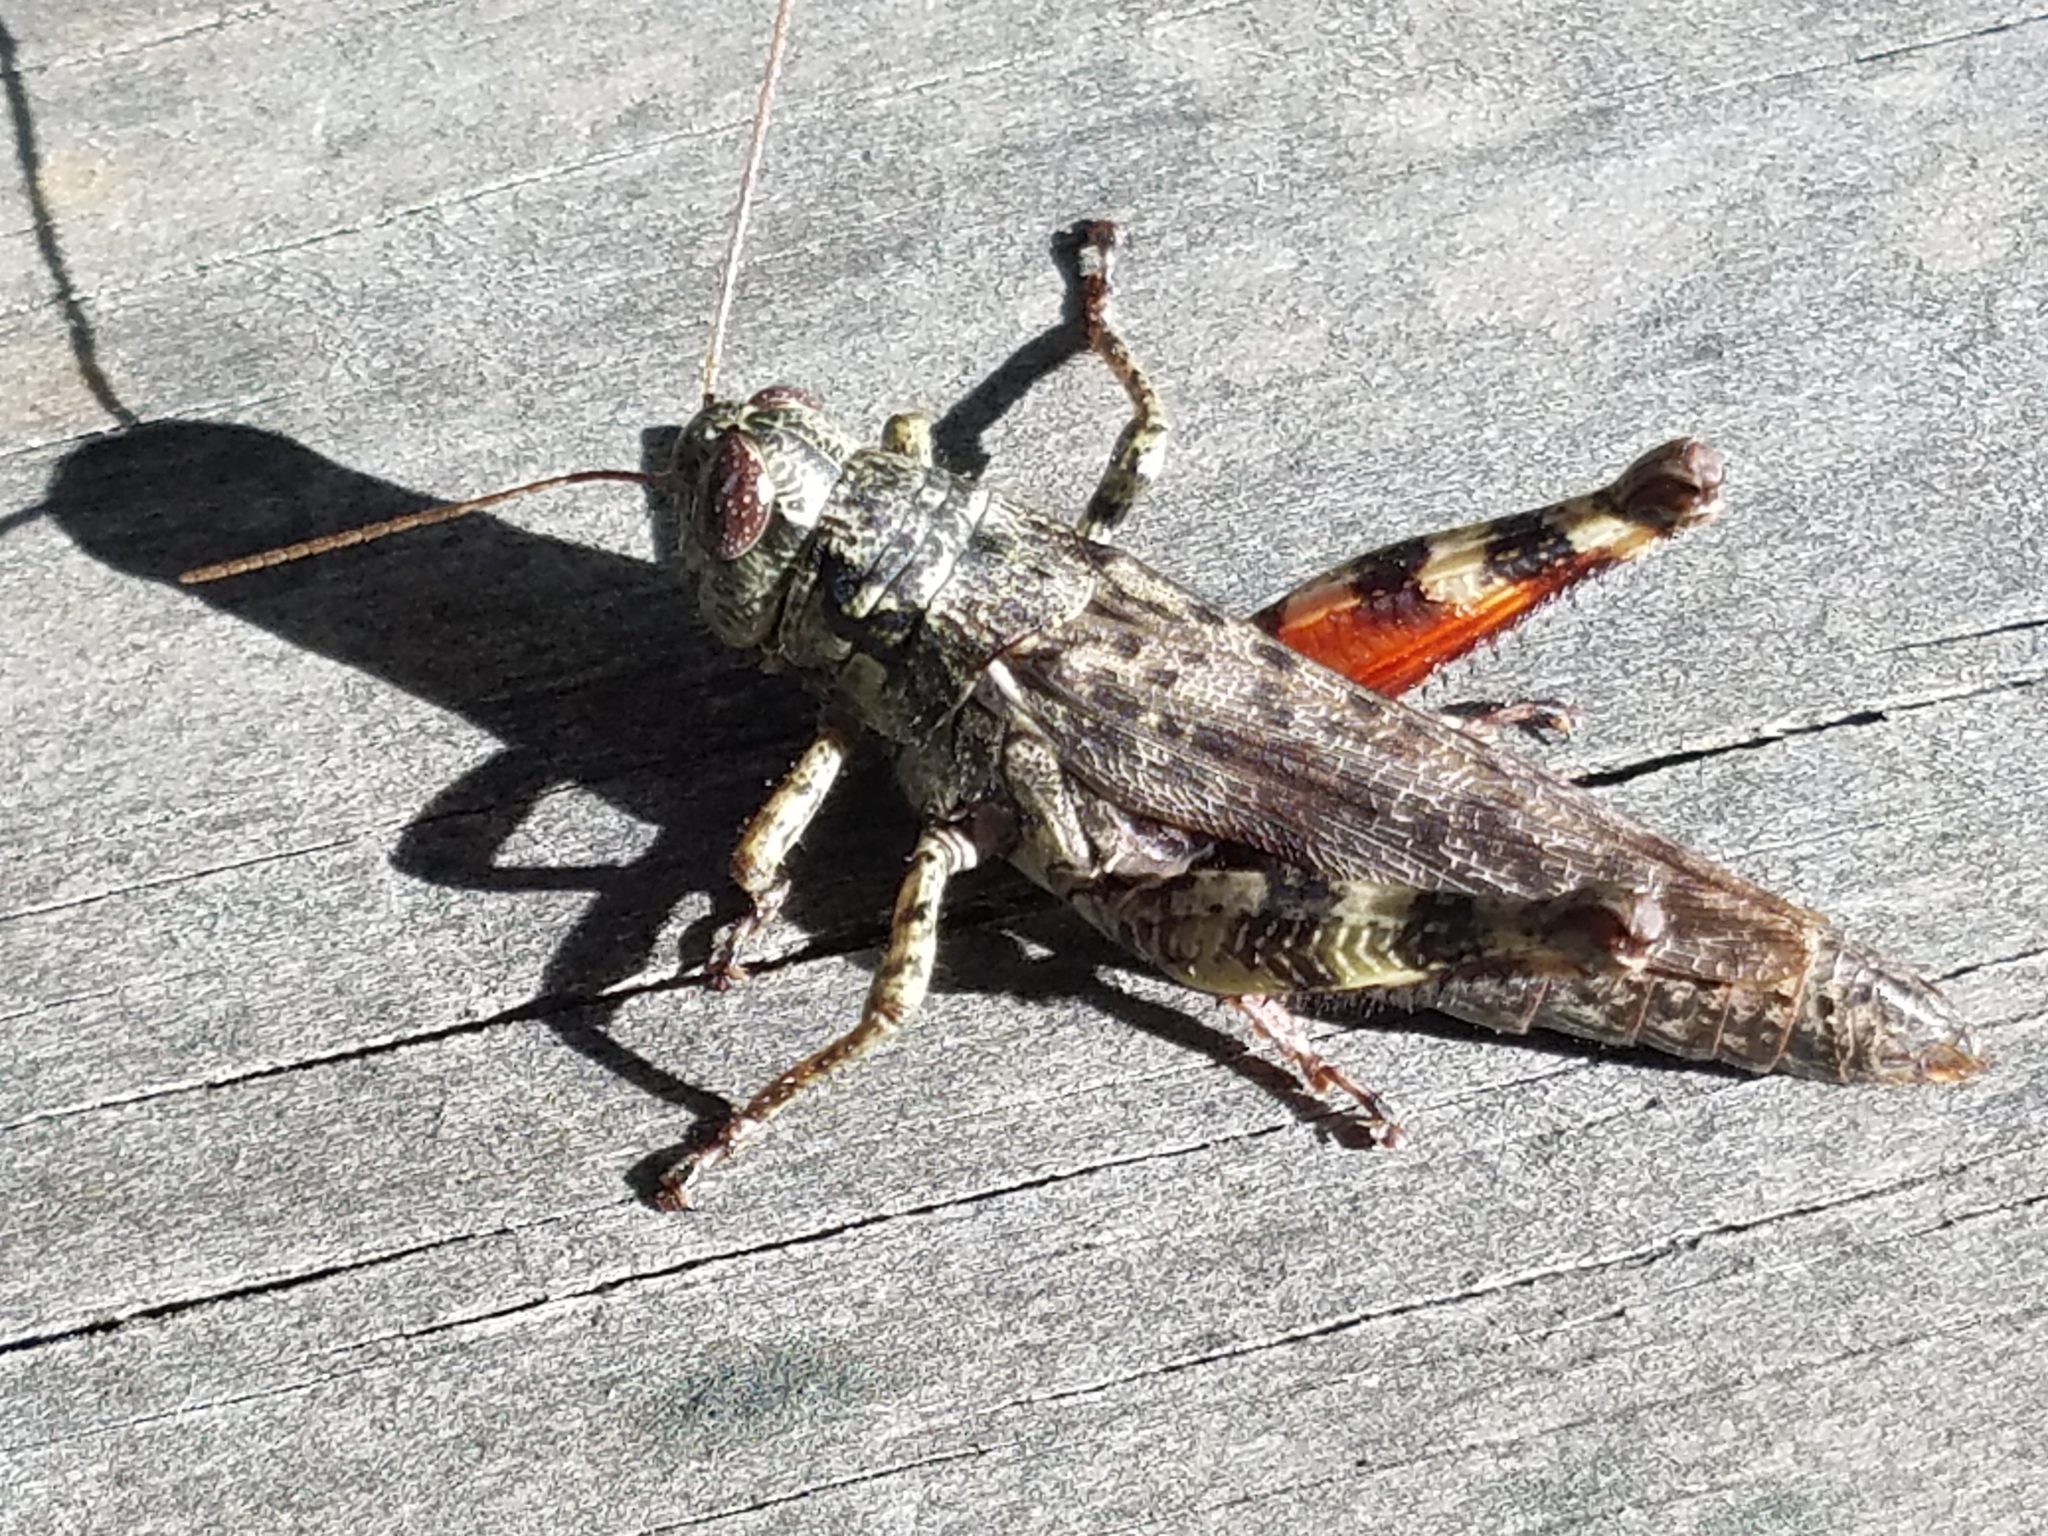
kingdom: Animalia
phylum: Arthropoda
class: Insecta
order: Orthoptera
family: Acrididae
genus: Melanoplus
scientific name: Melanoplus punctulatus
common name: Pine-tree spur-throat grasshopper
